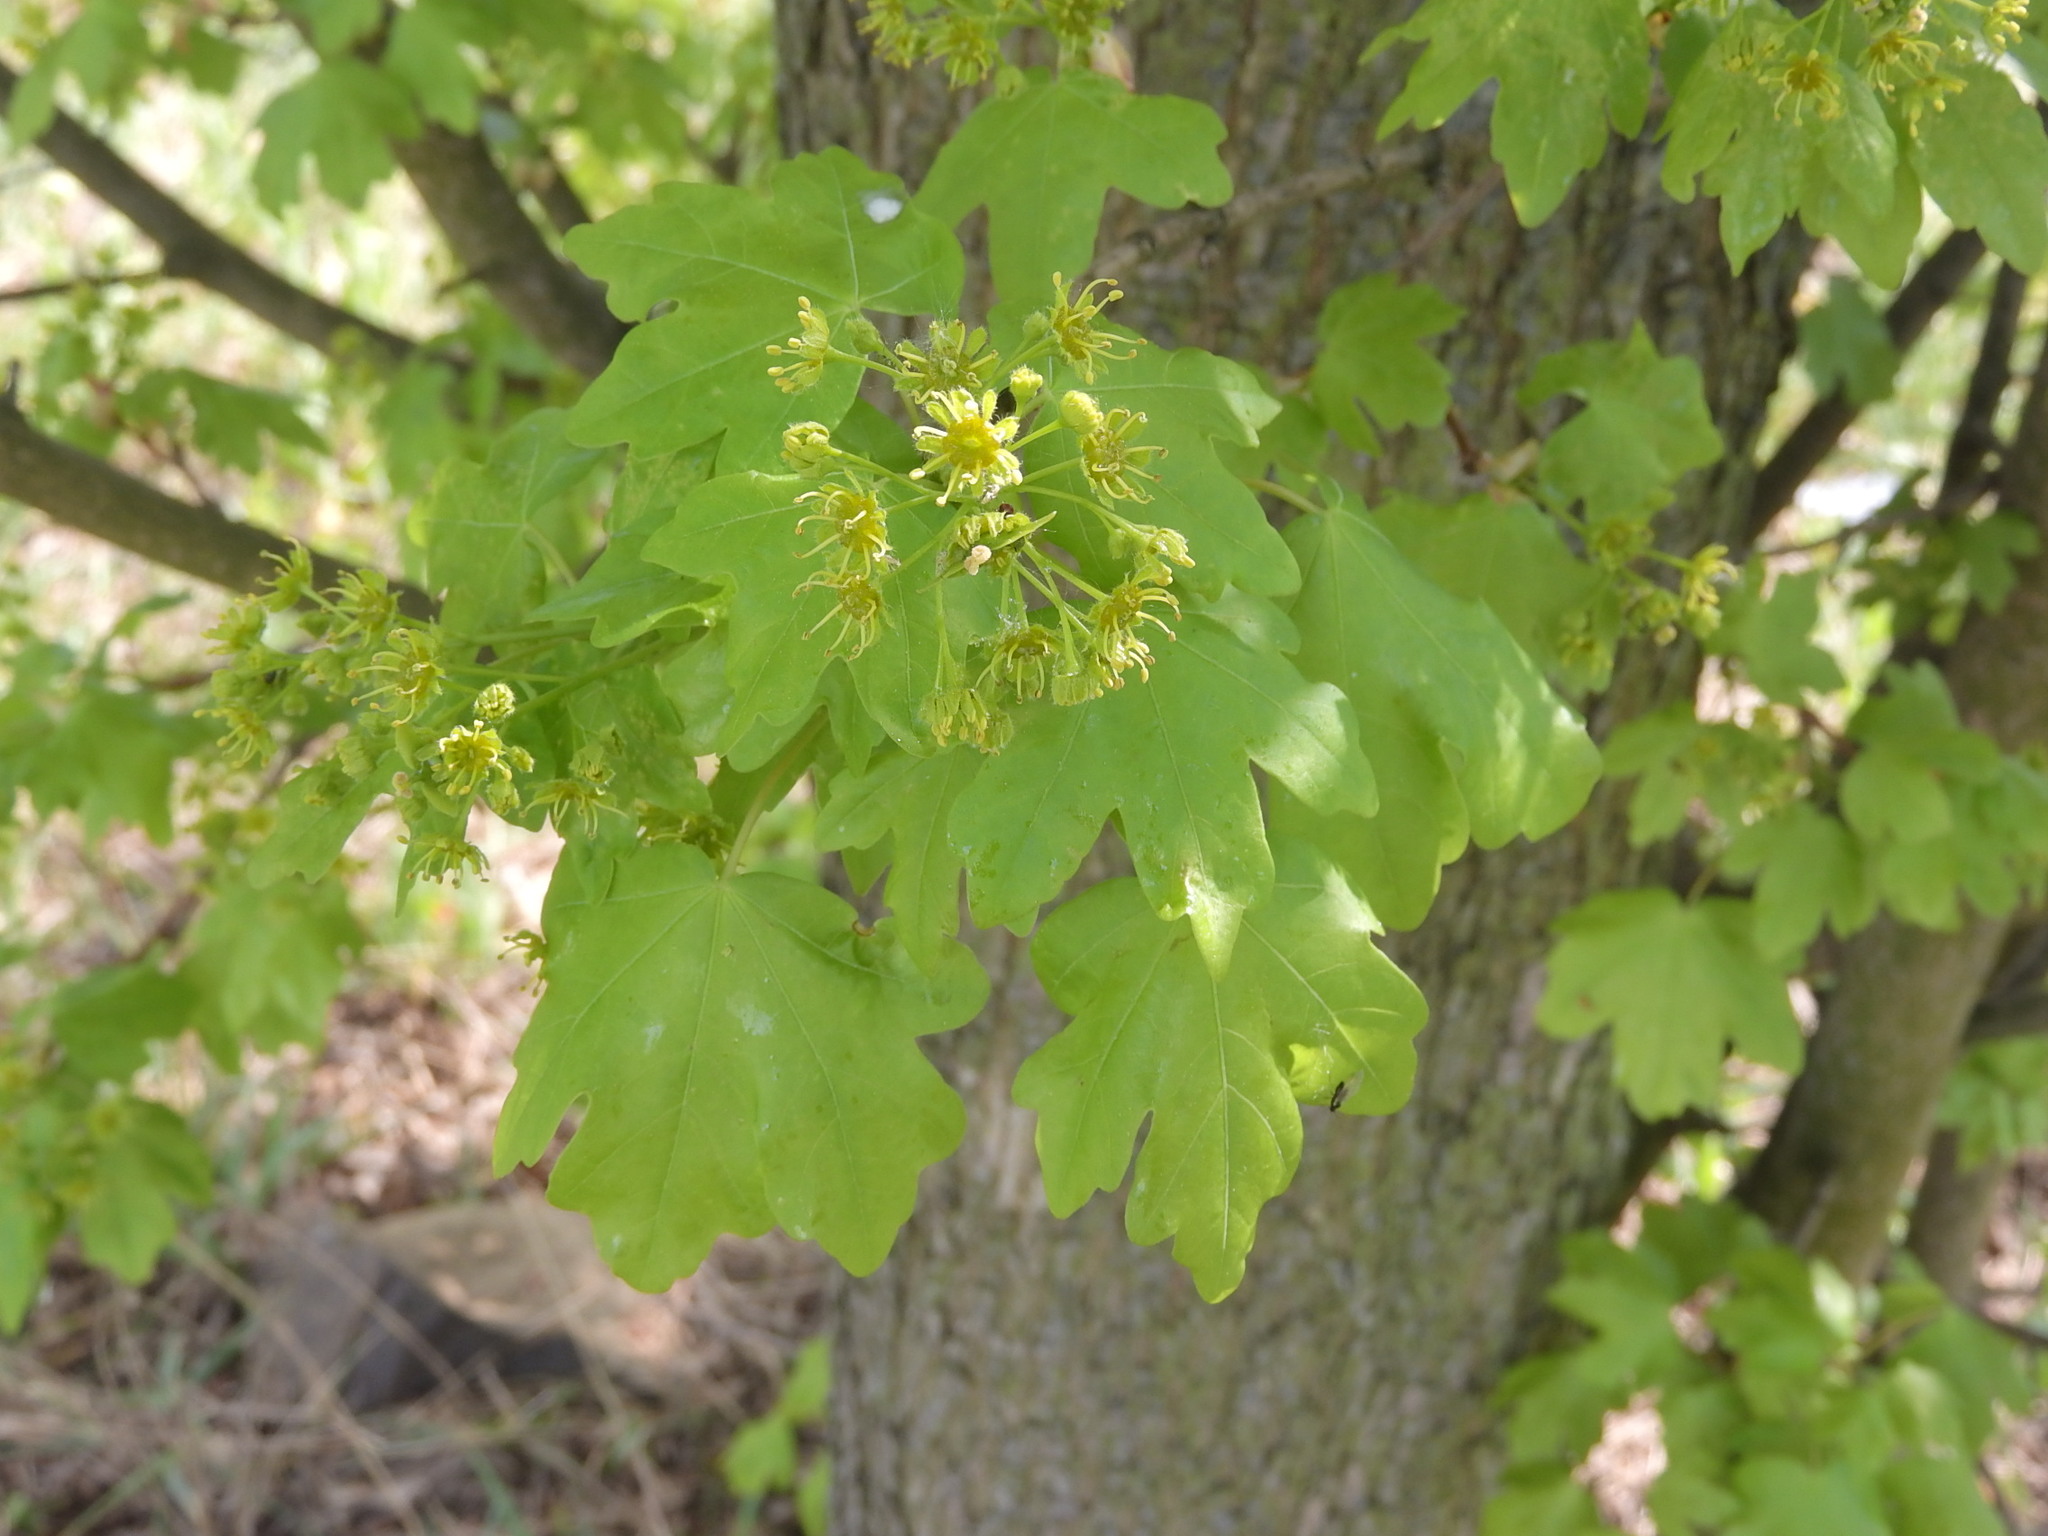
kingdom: Plantae
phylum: Tracheophyta
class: Magnoliopsida
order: Sapindales
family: Sapindaceae
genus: Acer
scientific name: Acer campestre
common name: Field maple
